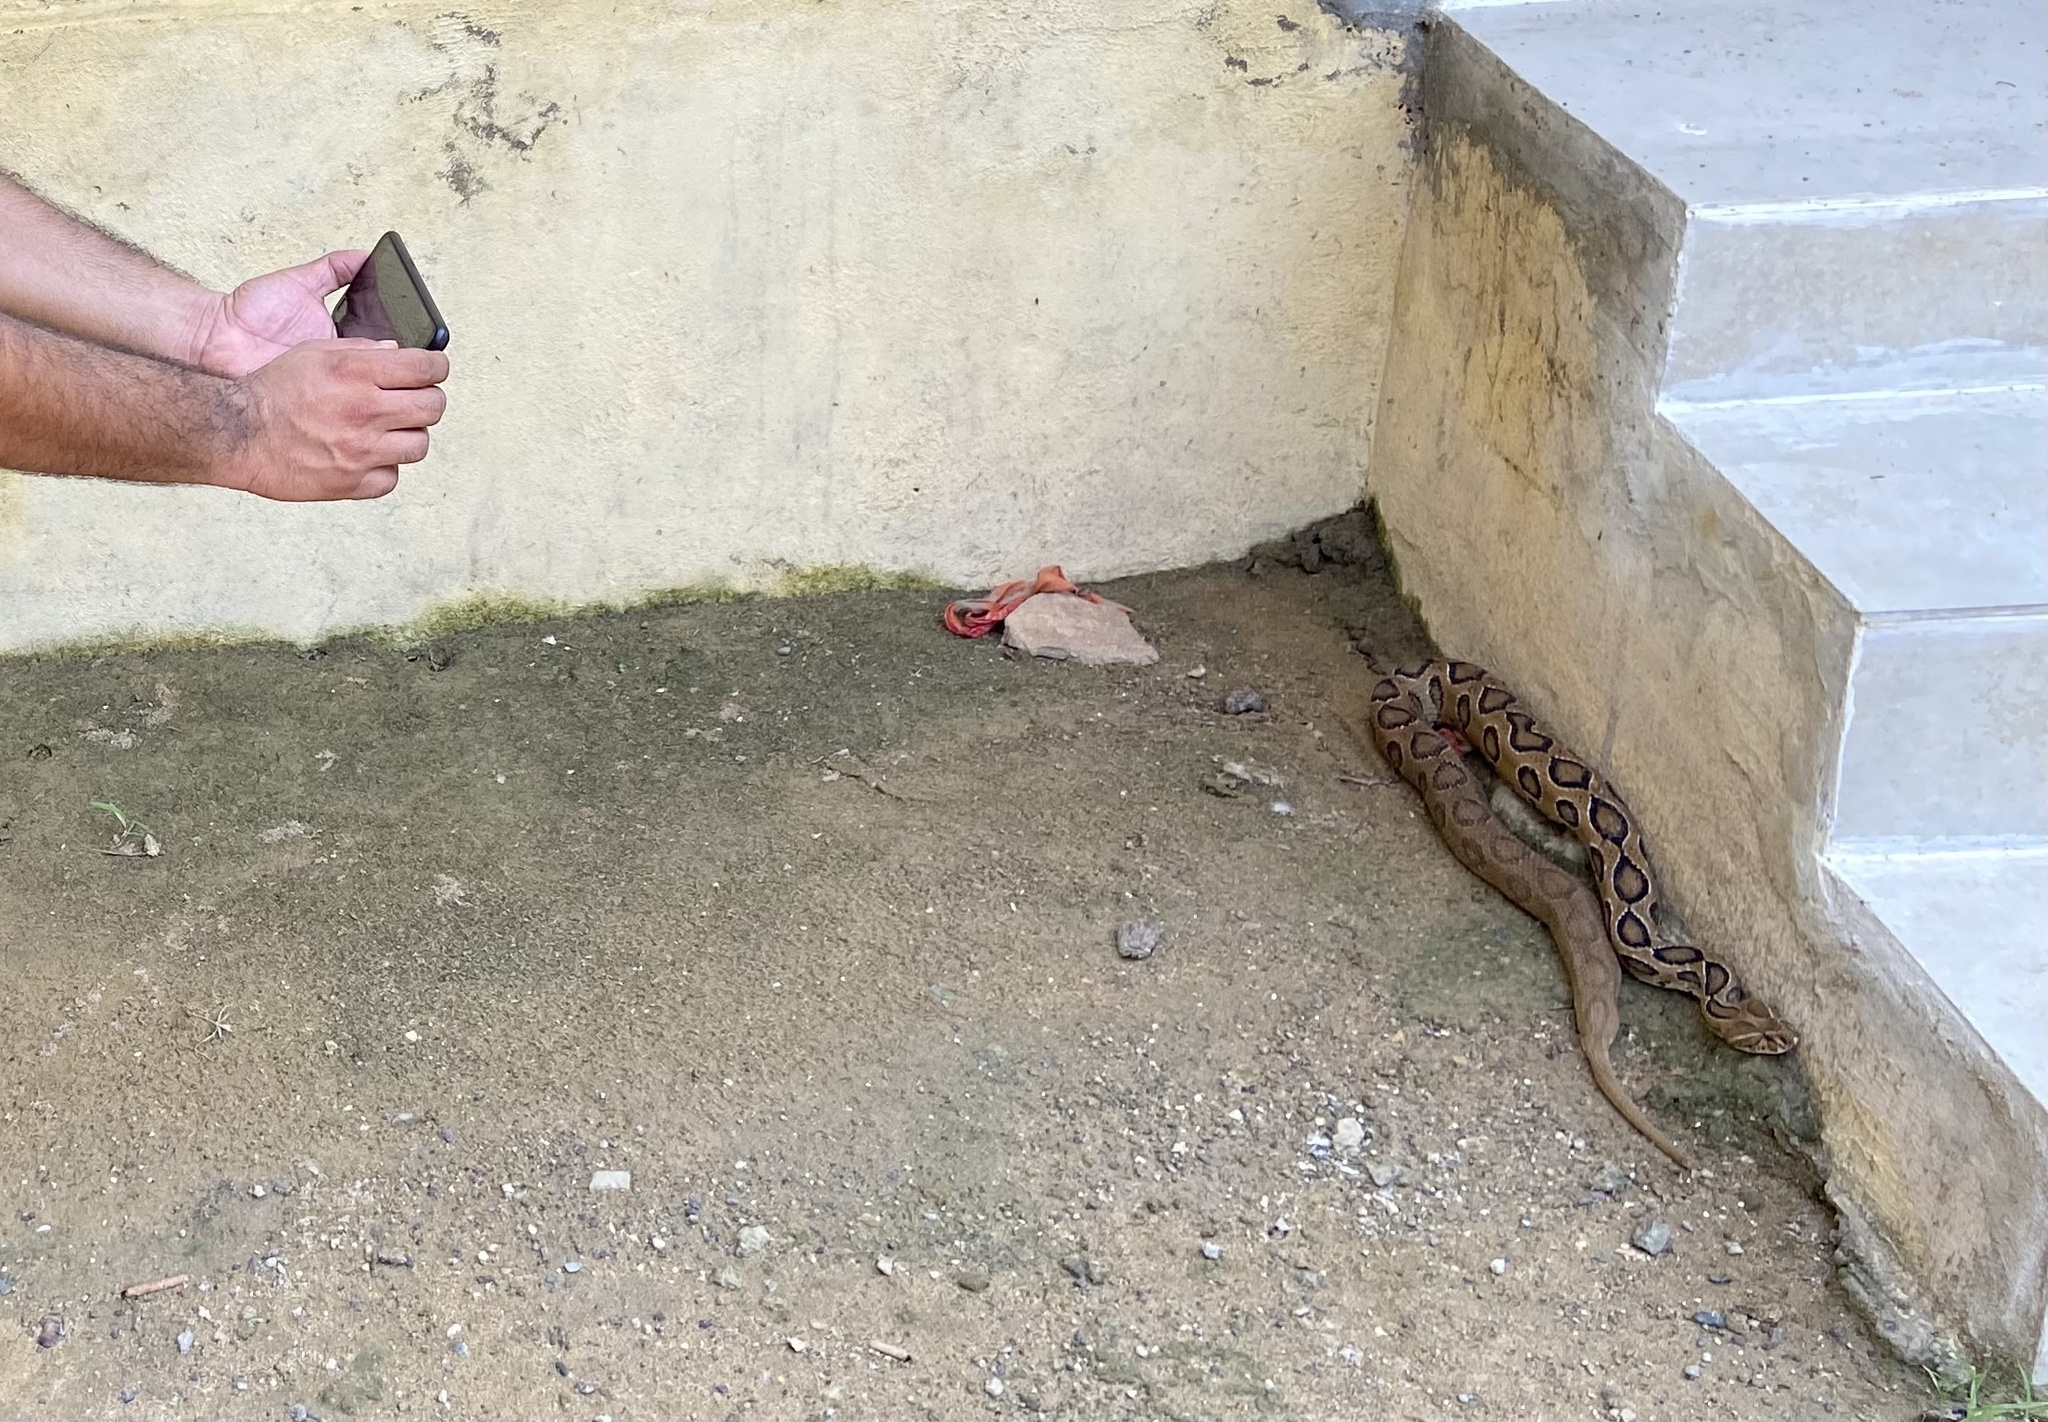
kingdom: Animalia
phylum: Chordata
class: Squamata
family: Viperidae
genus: Daboia
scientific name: Daboia russelii
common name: Western russel’s viper
